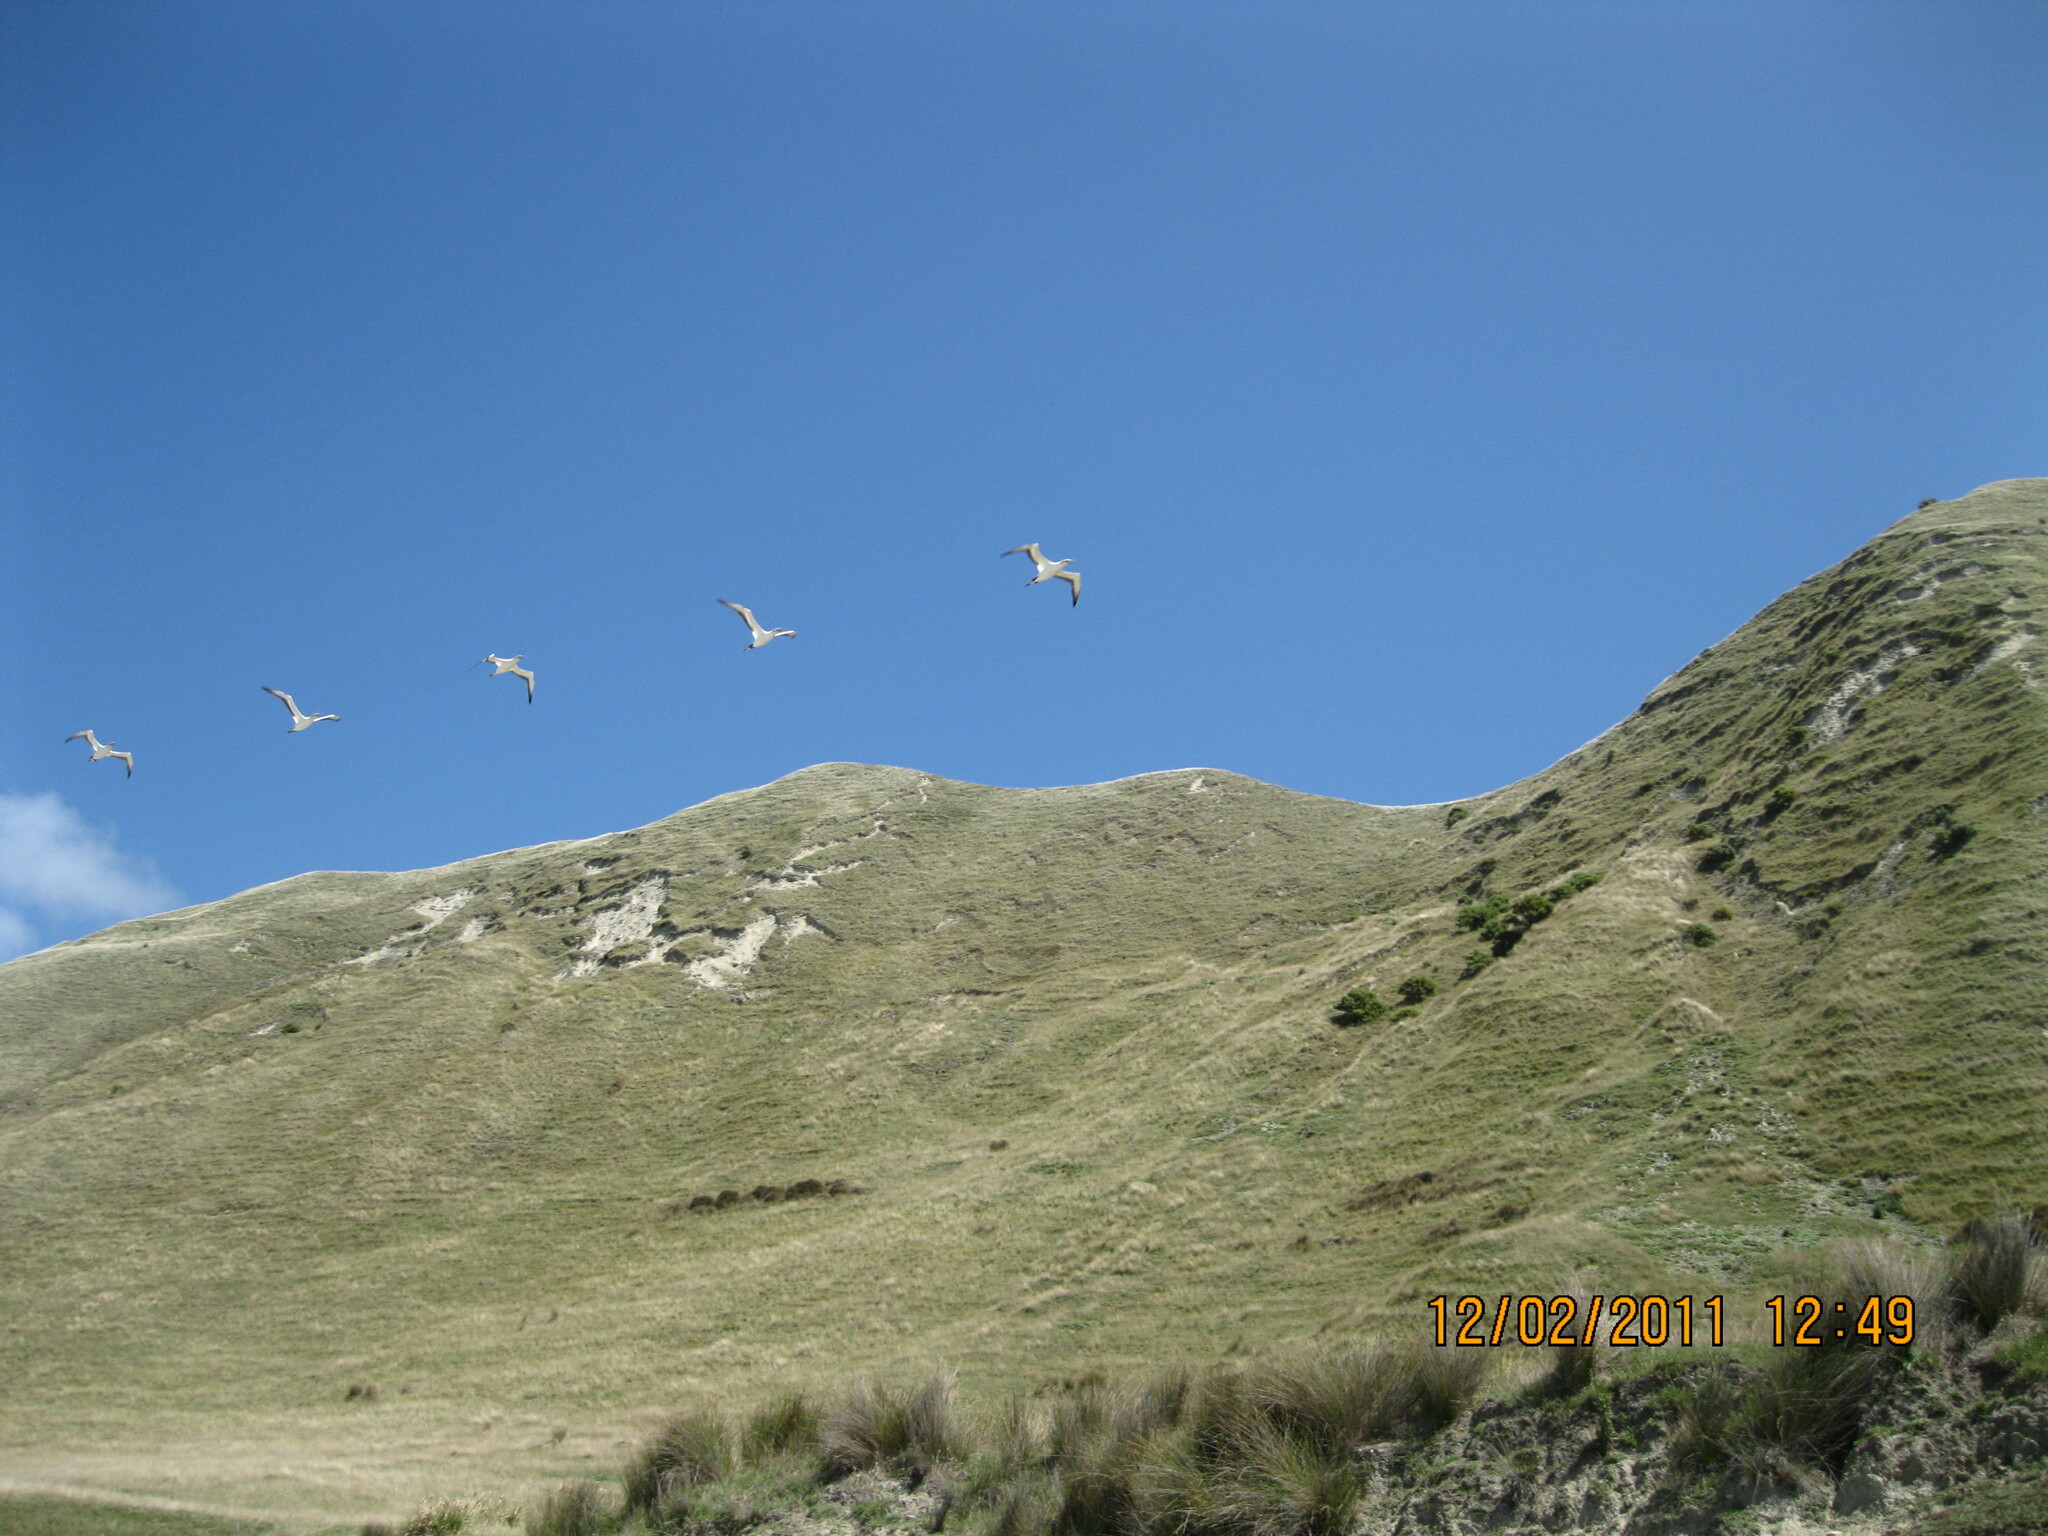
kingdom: Animalia
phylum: Chordata
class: Aves
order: Suliformes
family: Sulidae
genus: Morus
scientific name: Morus serrator
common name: Australasian gannet
